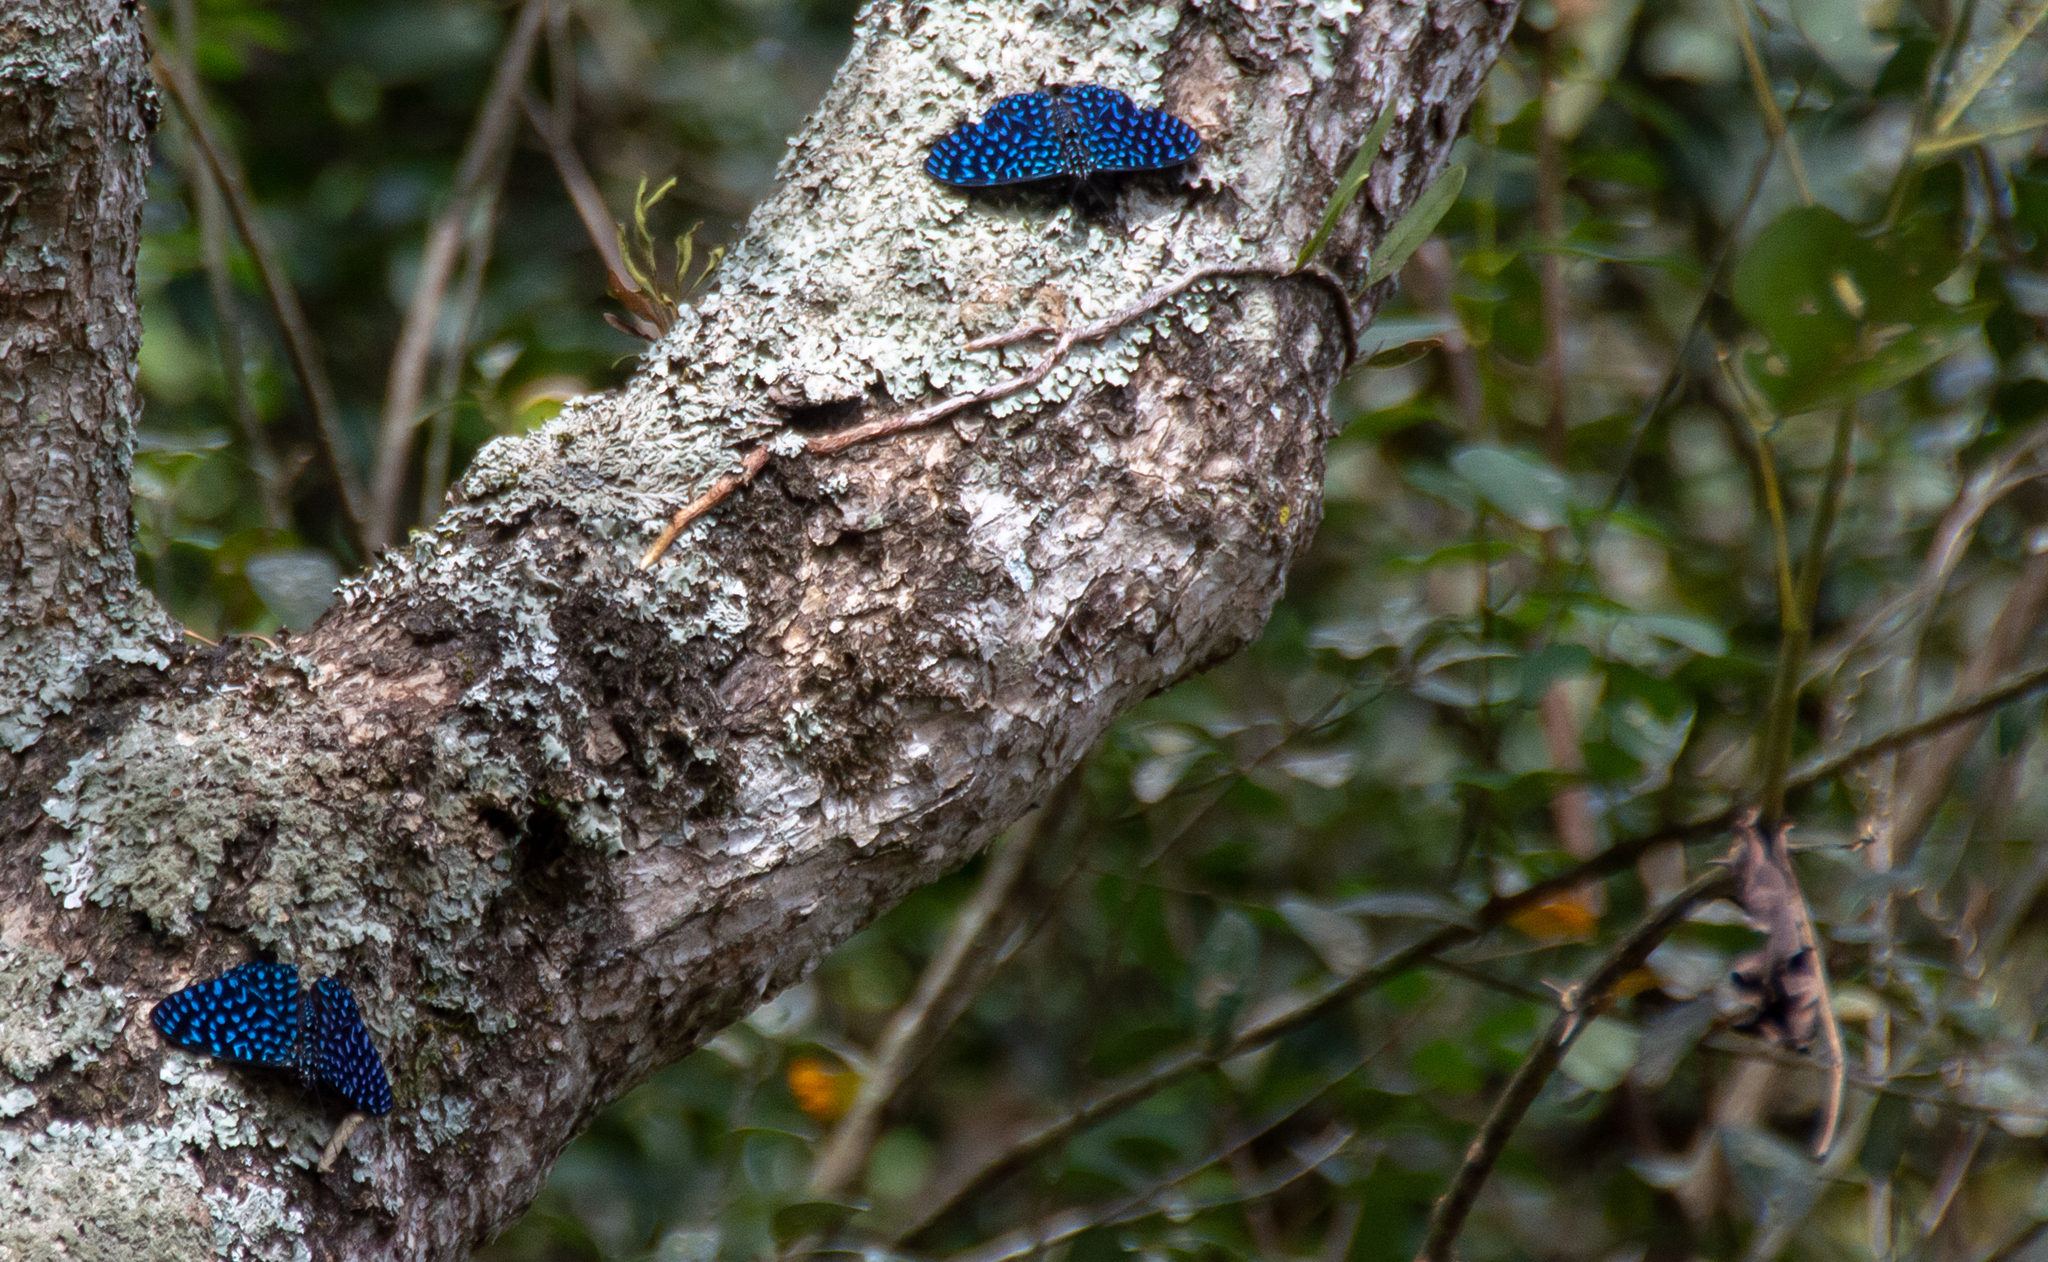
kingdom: Animalia
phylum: Arthropoda
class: Insecta
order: Lepidoptera
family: Nymphalidae
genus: Hamadryas
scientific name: Hamadryas arete
